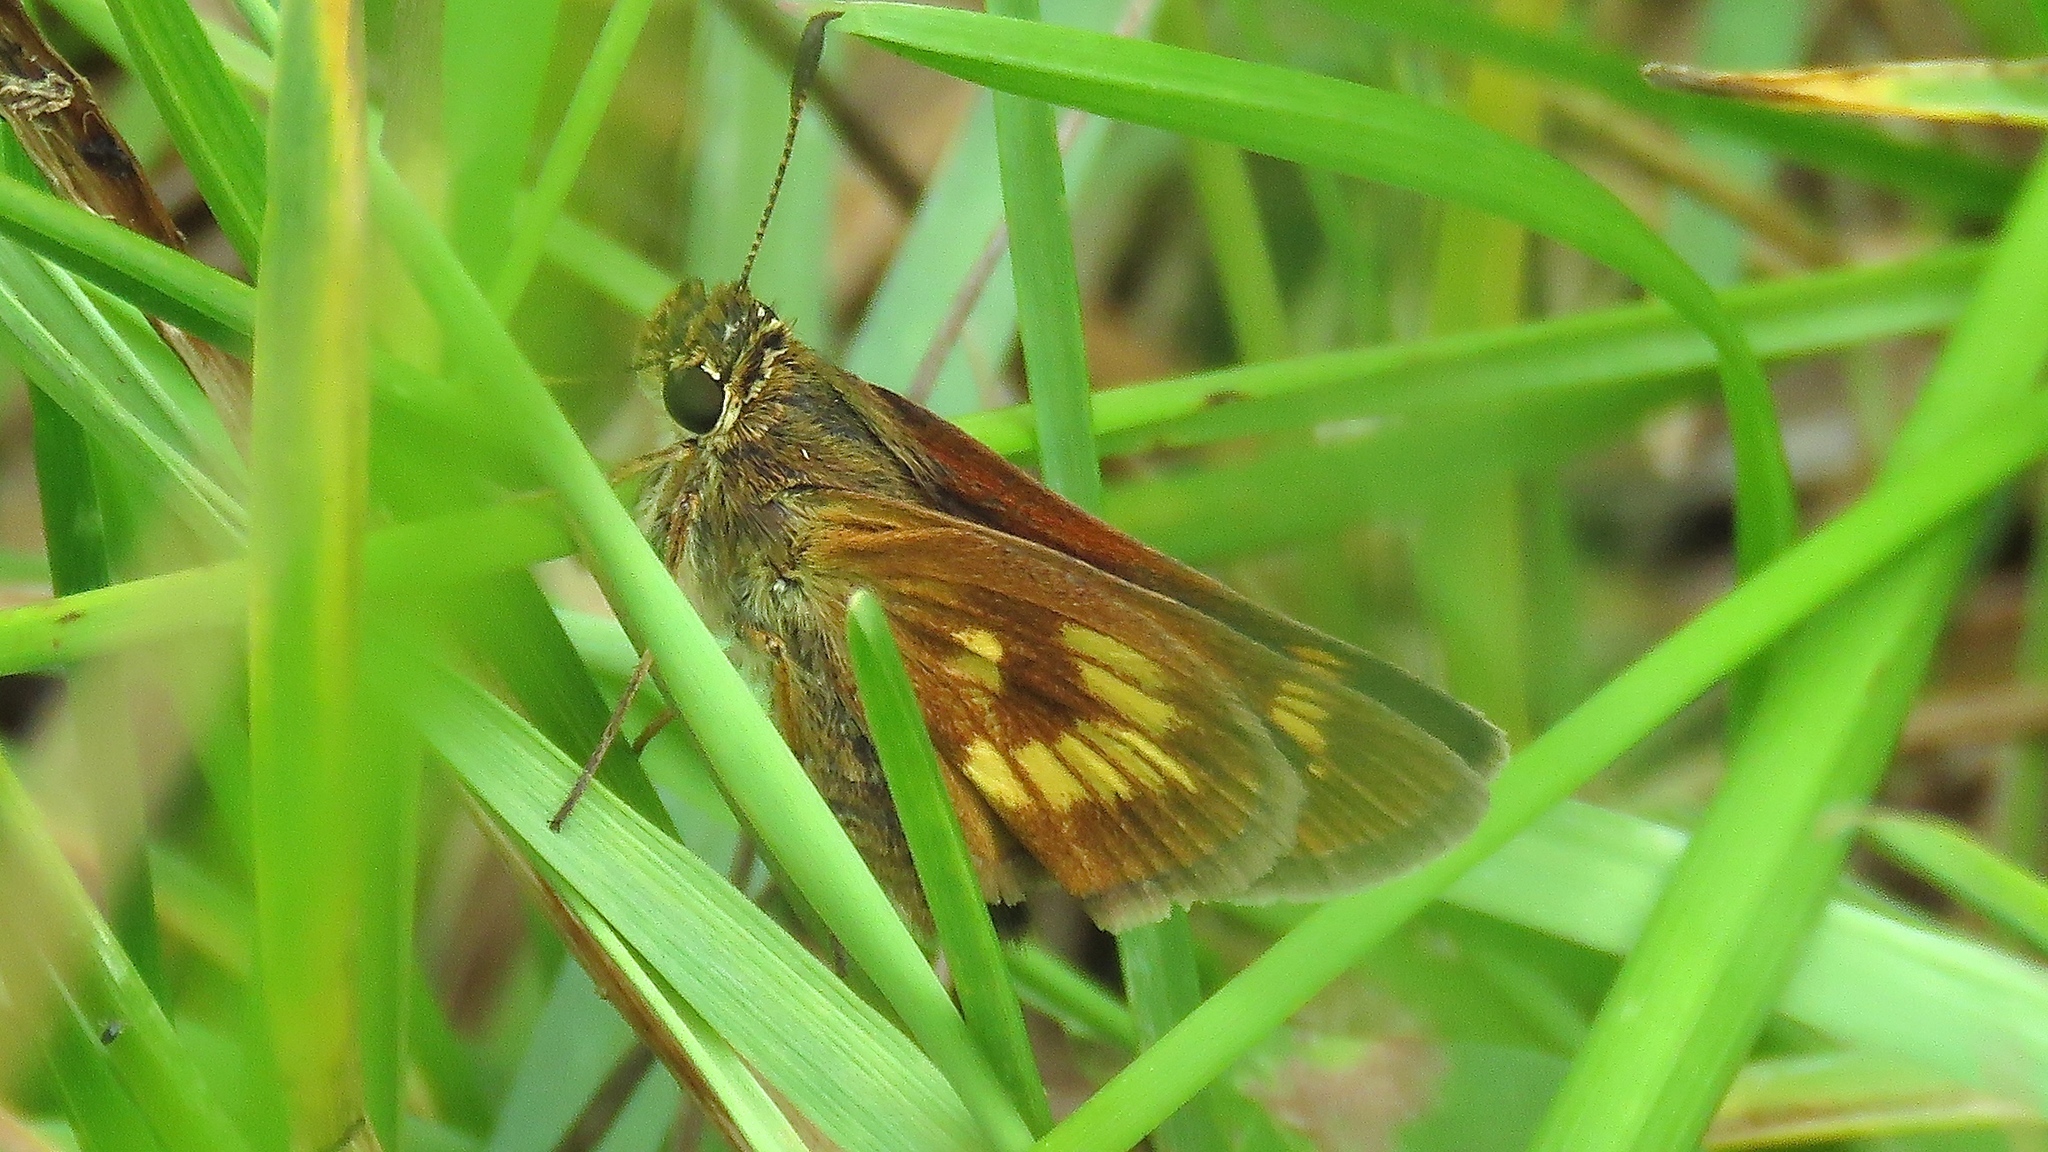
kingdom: Animalia
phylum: Arthropoda
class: Insecta
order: Lepidoptera
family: Hesperiidae
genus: Polites
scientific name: Polites mystic
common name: Long dash
